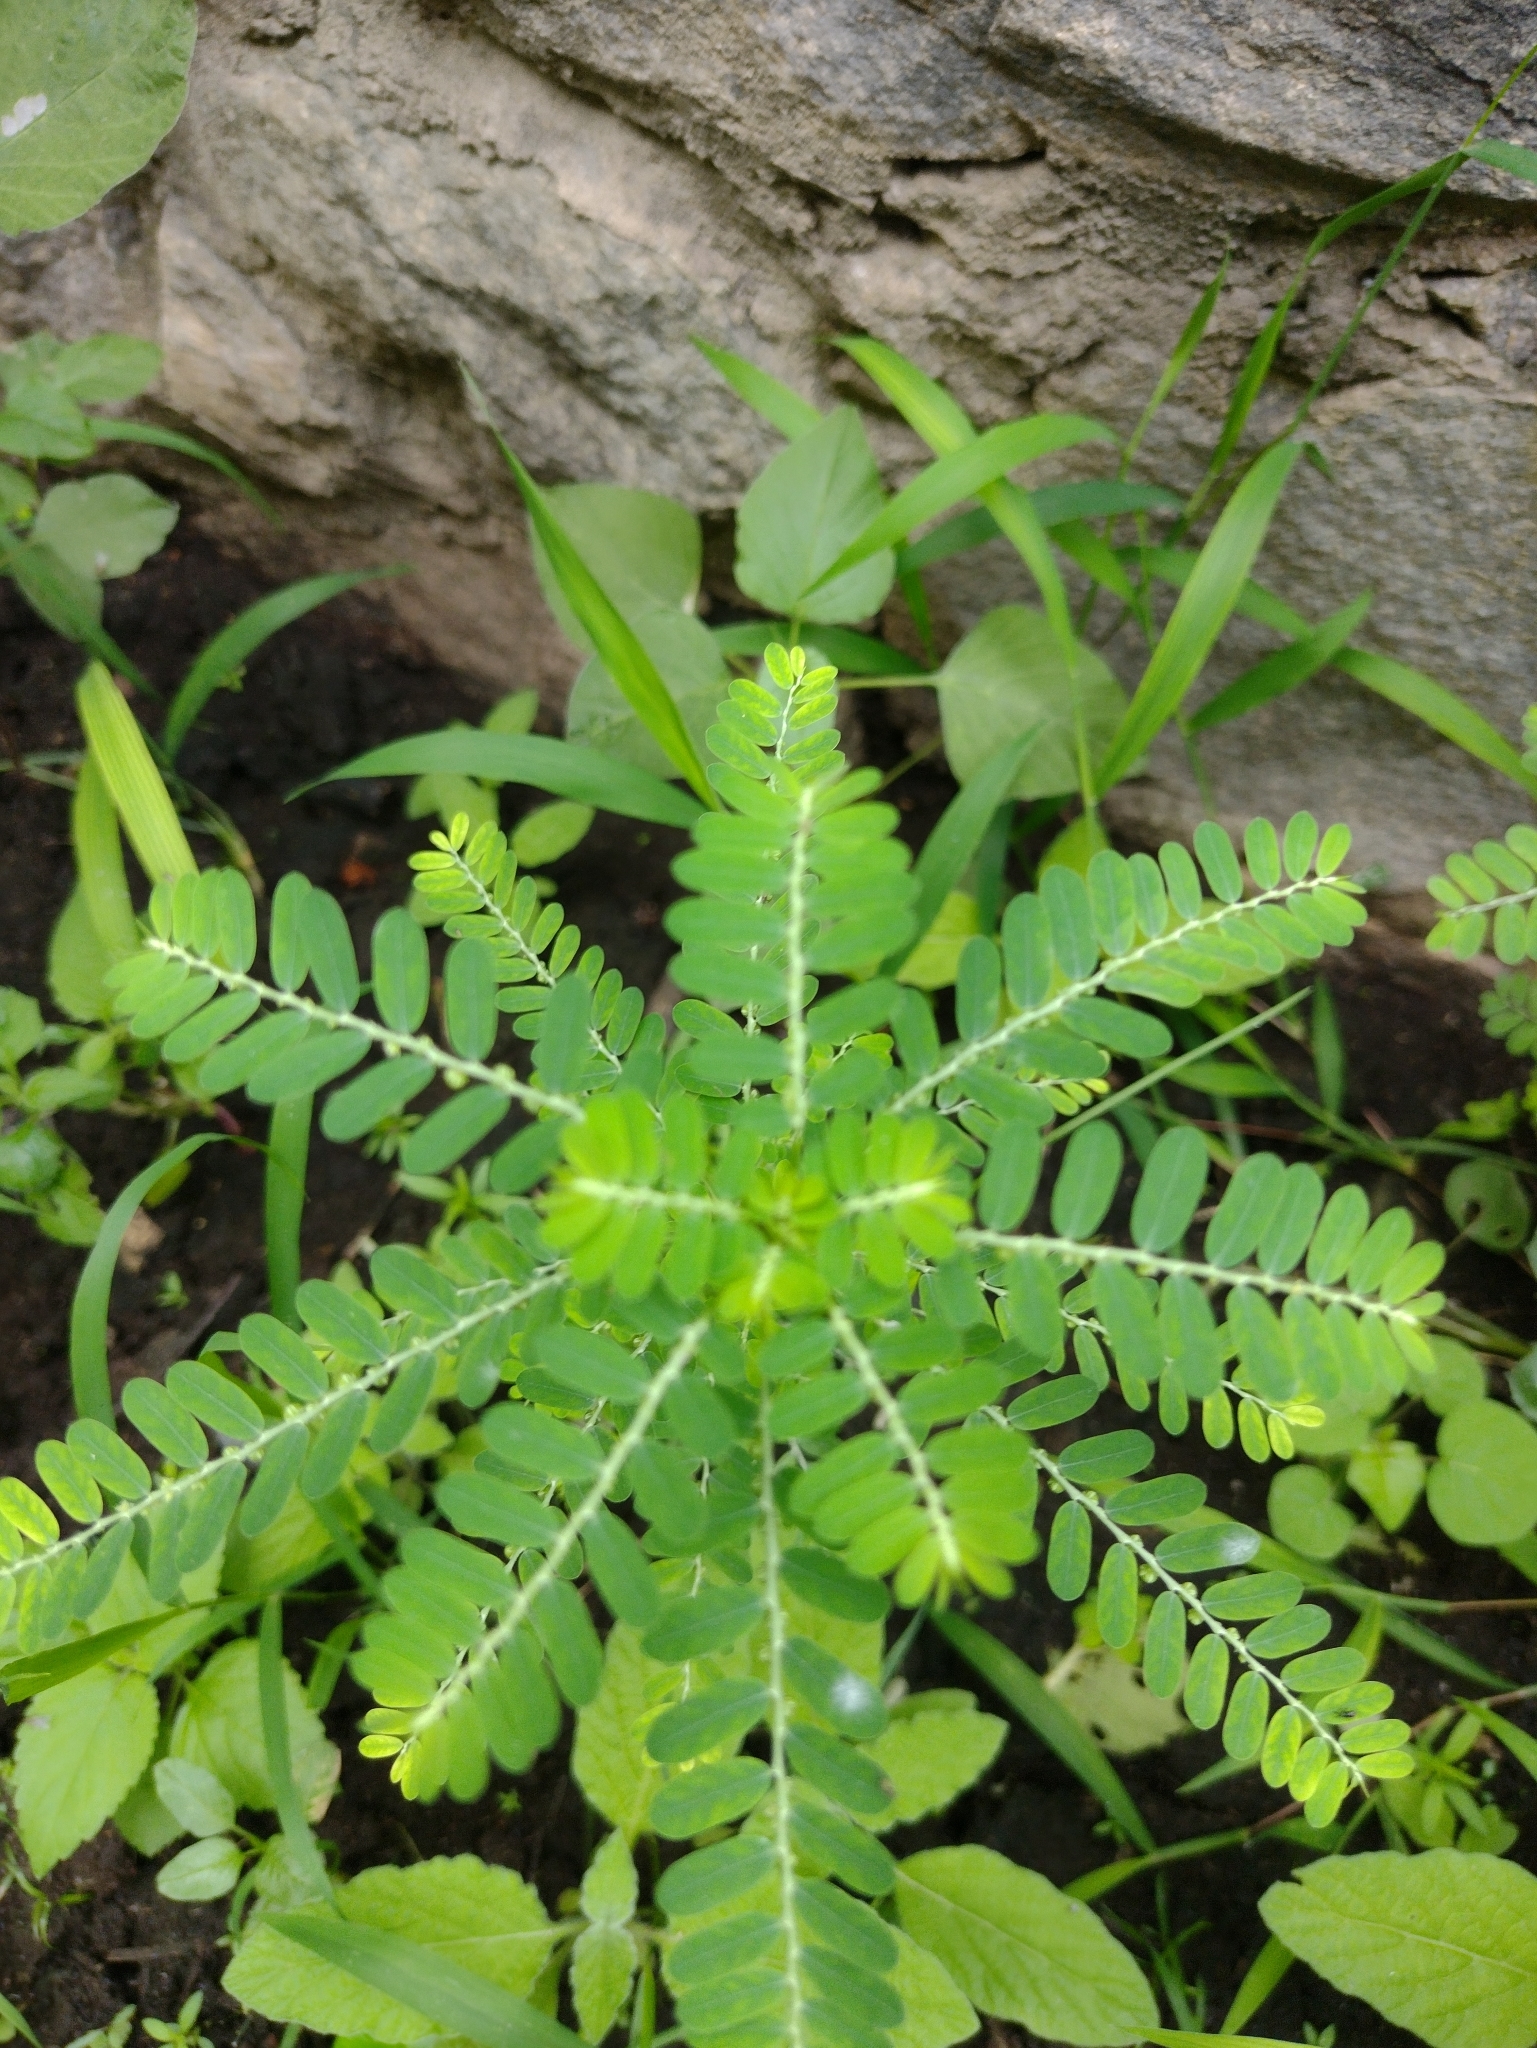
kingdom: Plantae
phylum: Tracheophyta
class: Magnoliopsida
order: Malpighiales
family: Phyllanthaceae
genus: Phyllanthus
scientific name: Phyllanthus amarus
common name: Carry me seed
